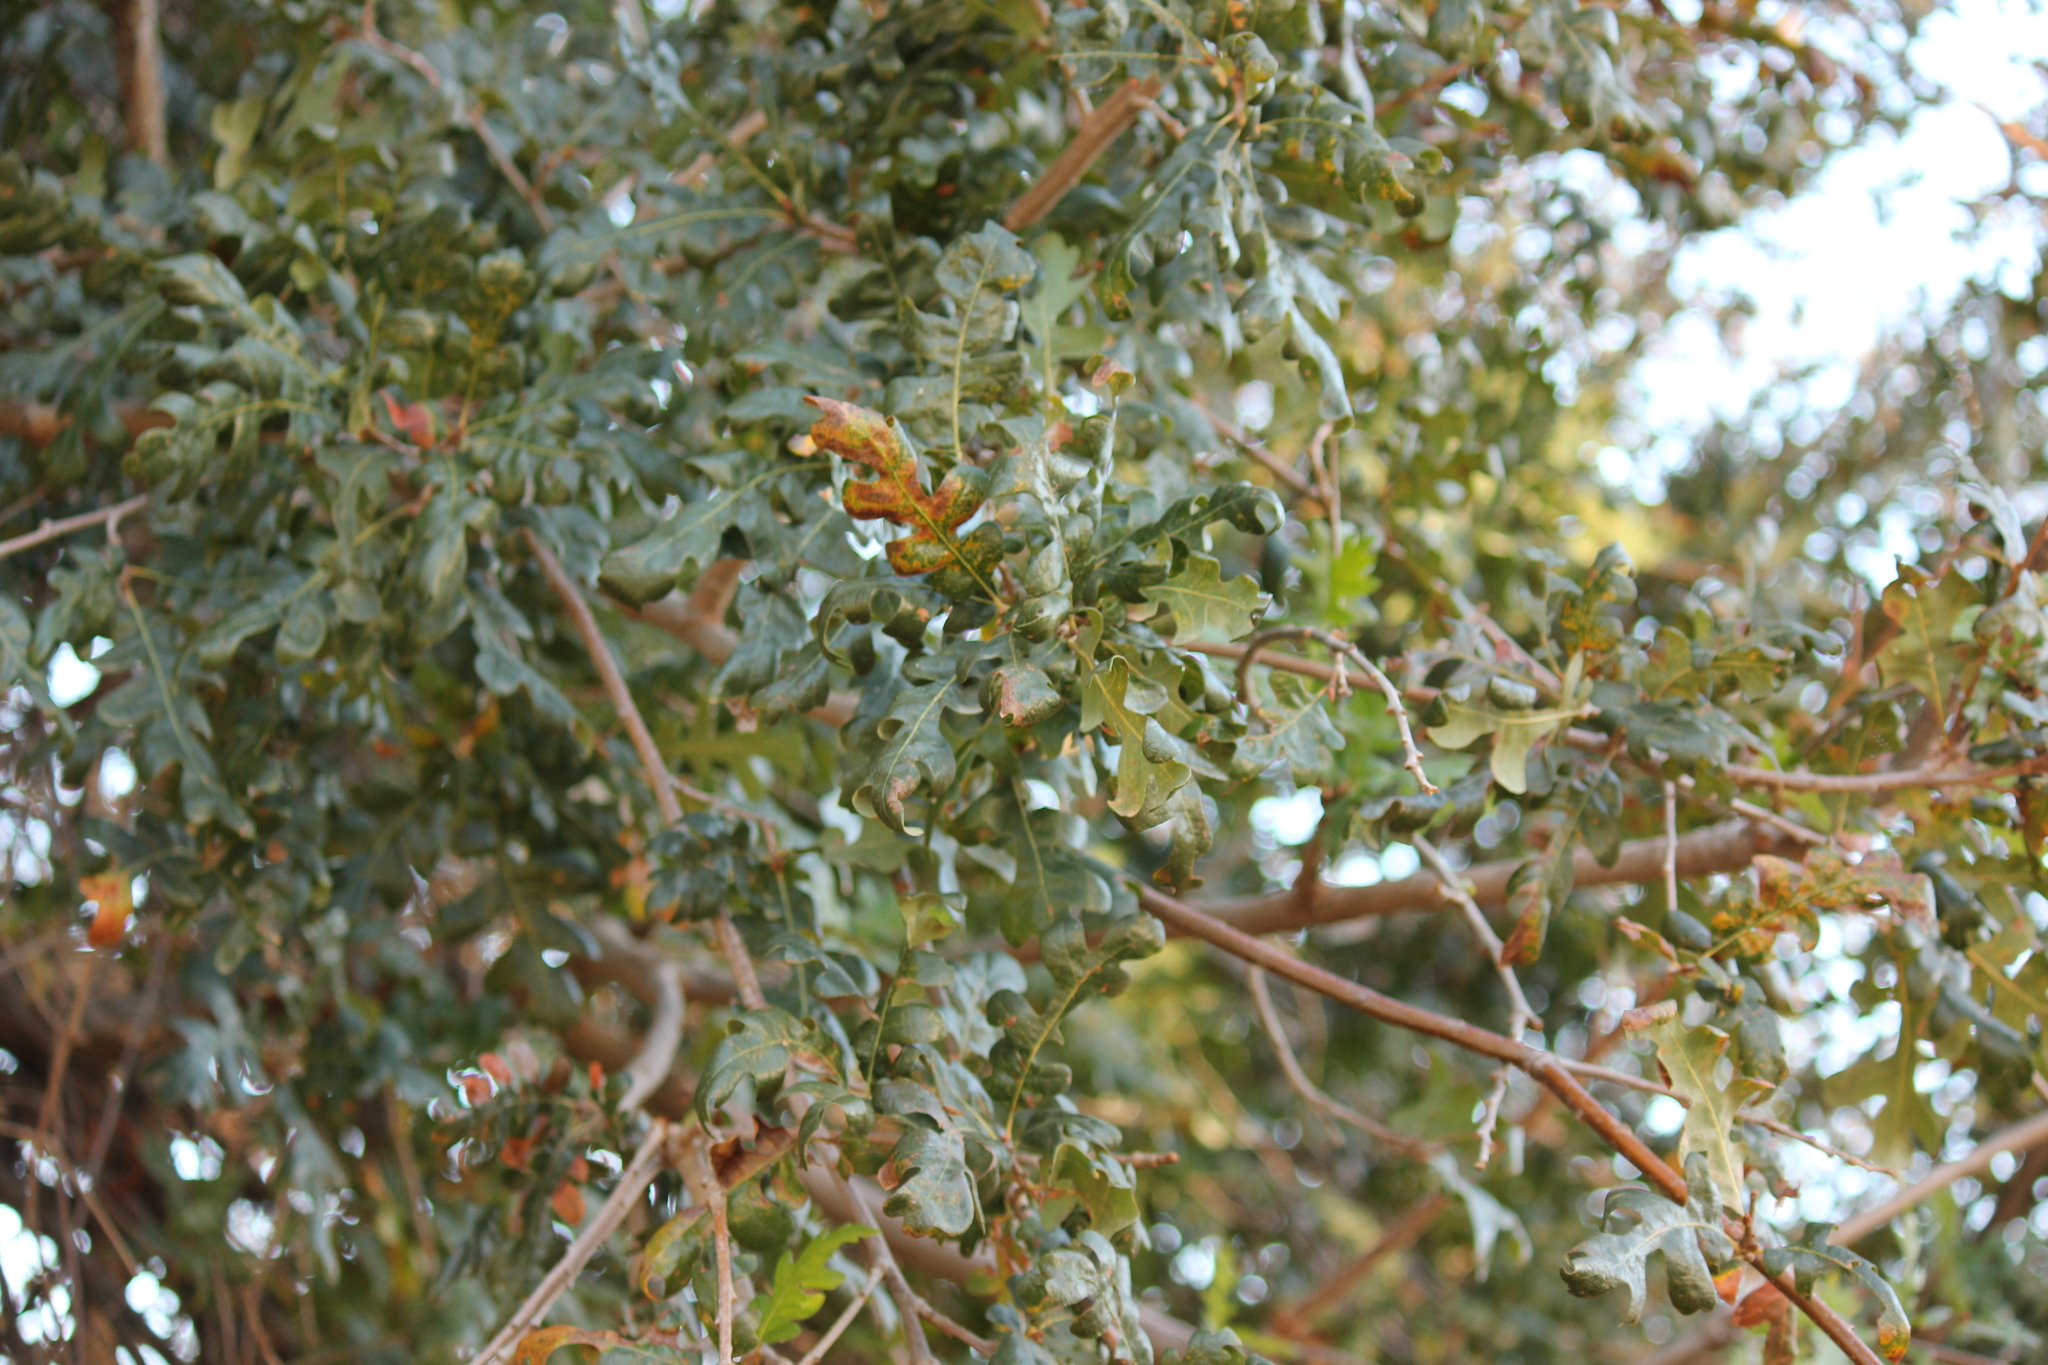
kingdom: Plantae
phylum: Tracheophyta
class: Magnoliopsida
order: Fagales
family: Fagaceae
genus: Quercus
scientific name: Quercus lobata
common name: Valley oak
